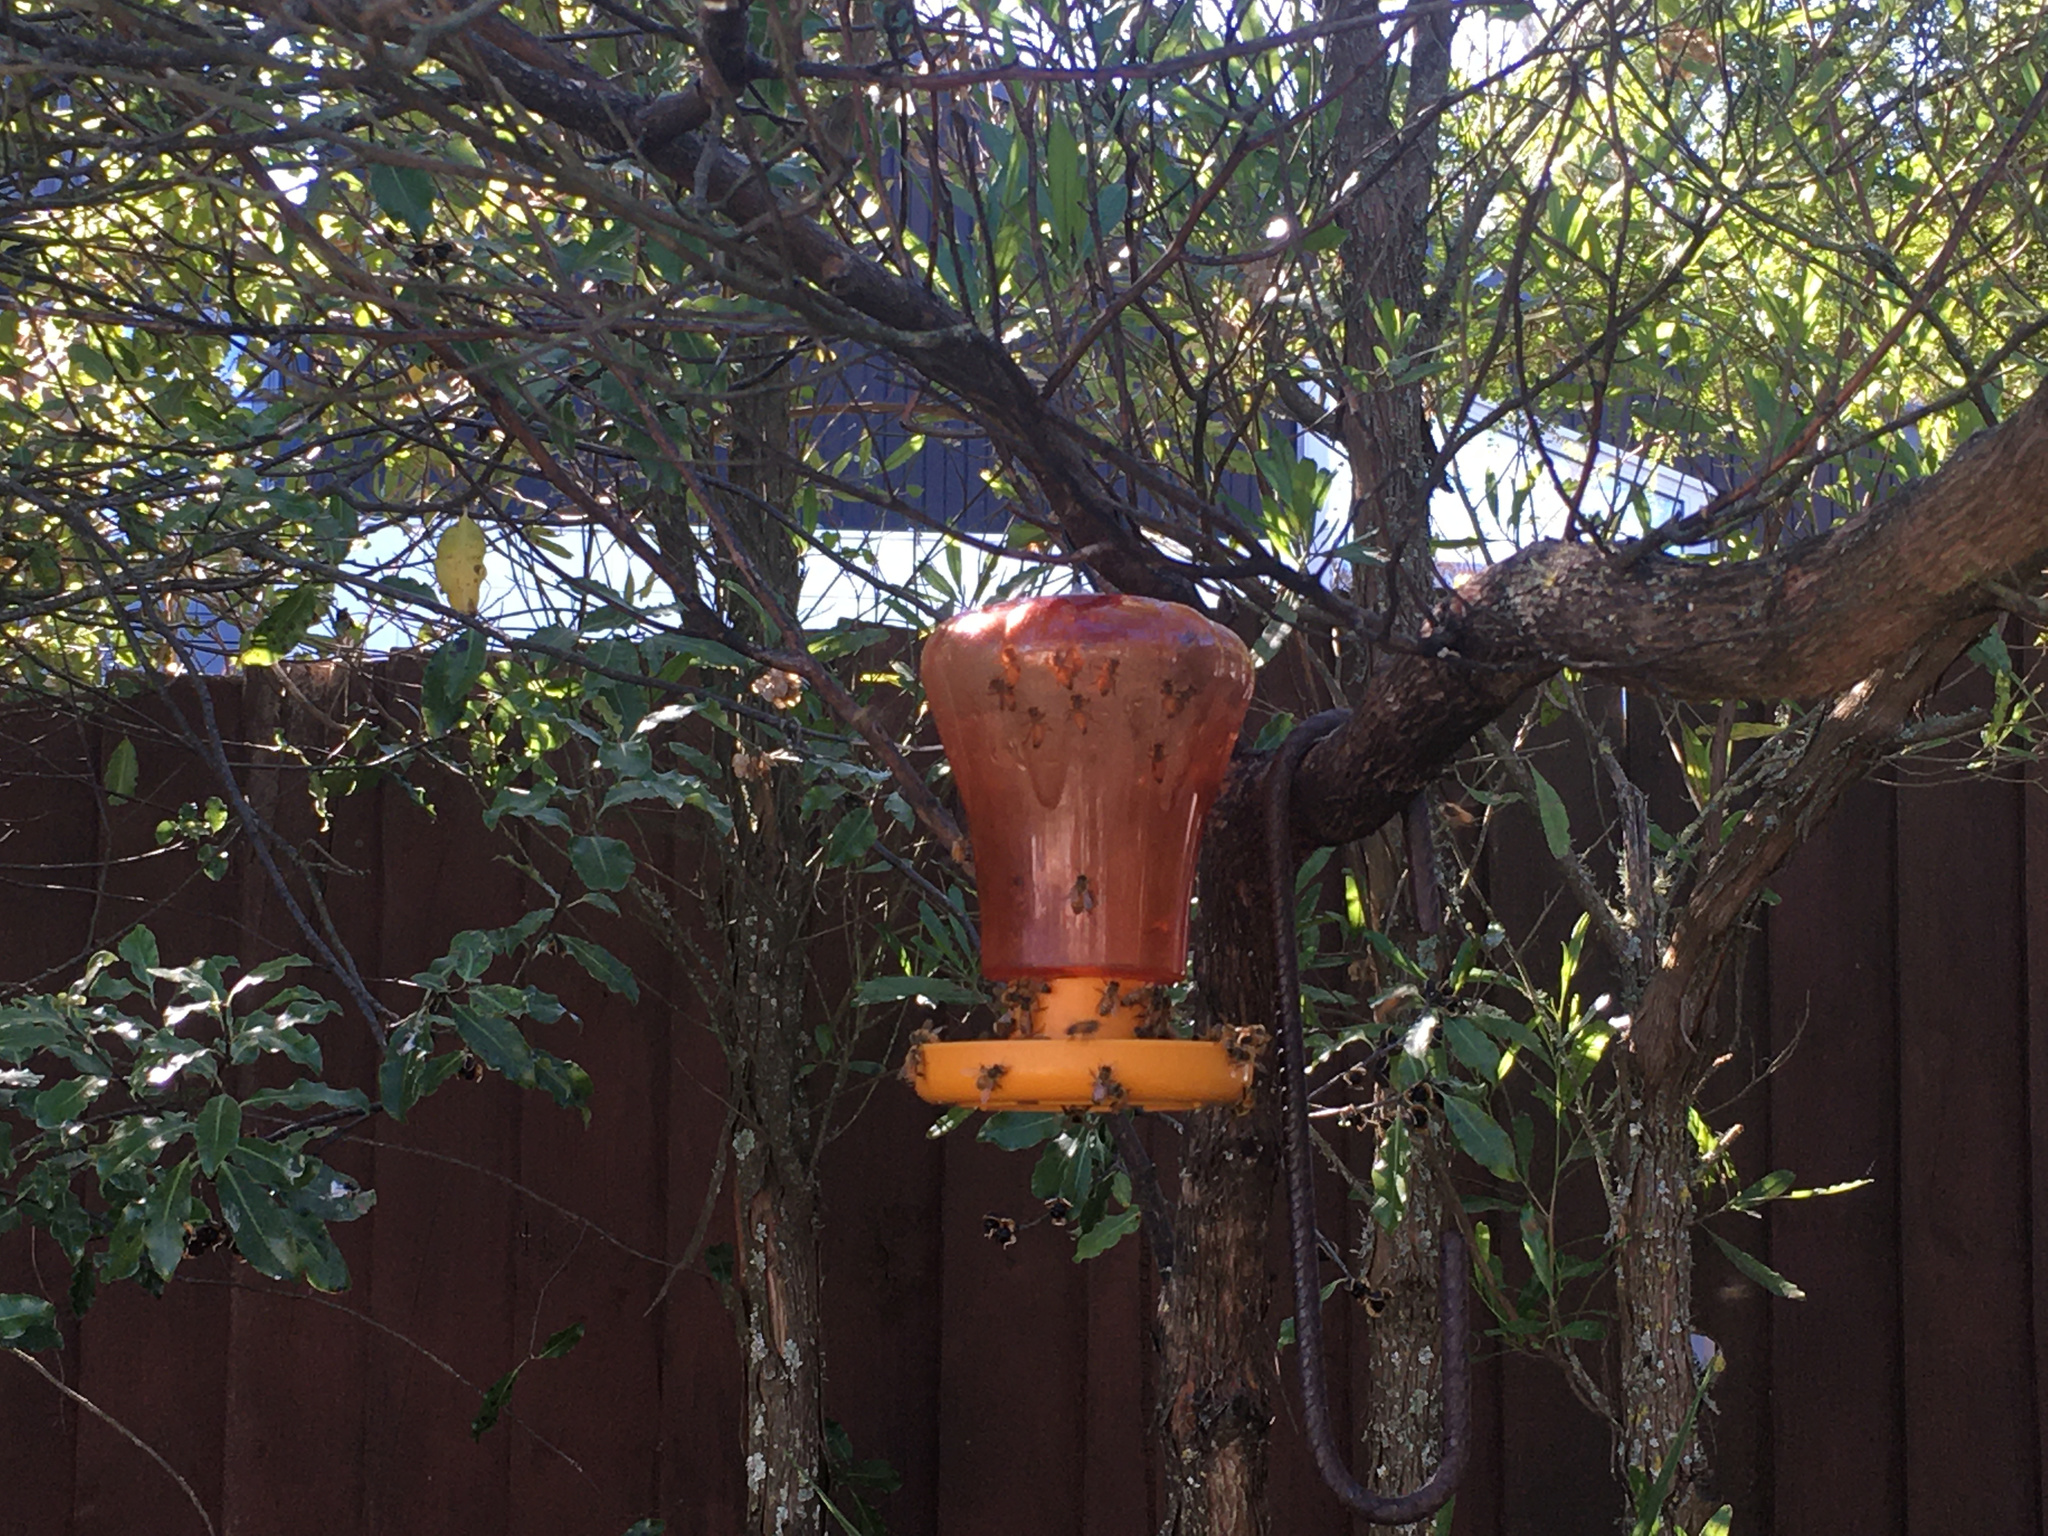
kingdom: Animalia
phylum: Arthropoda
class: Insecta
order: Hymenoptera
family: Apidae
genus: Apis
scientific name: Apis mellifera
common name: Honey bee
